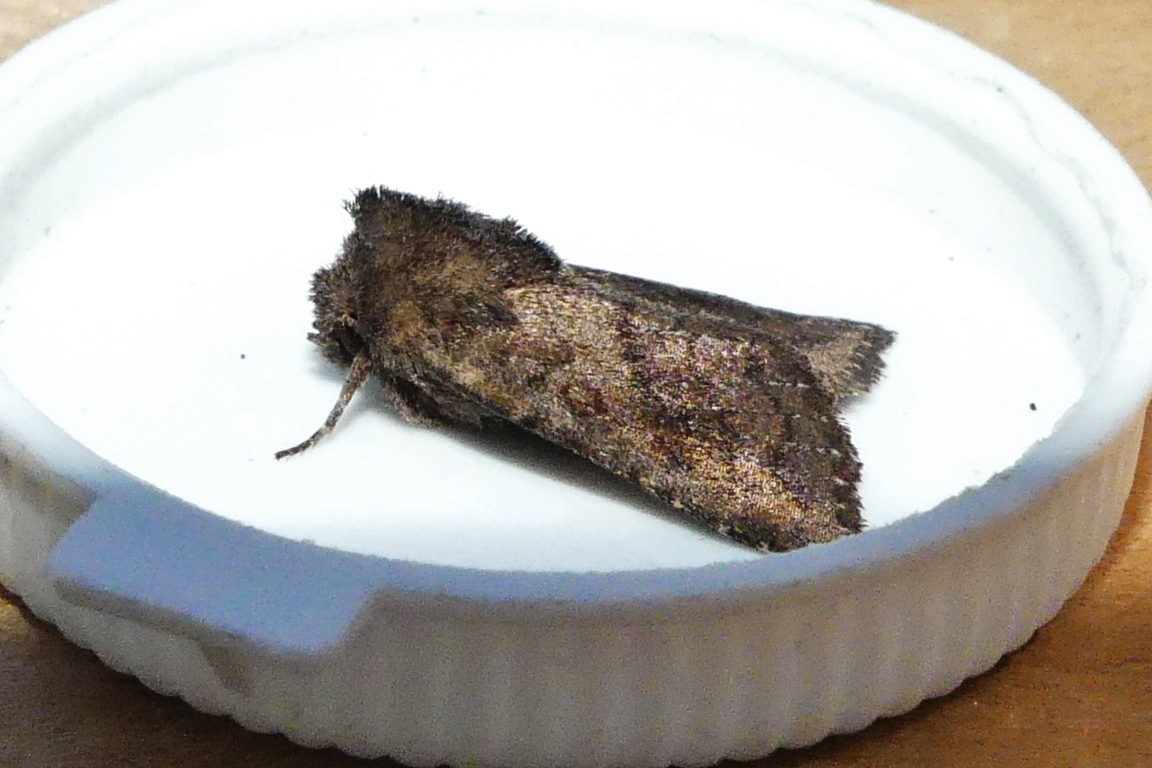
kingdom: Animalia
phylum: Arthropoda
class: Insecta
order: Lepidoptera
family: Noctuidae
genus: Tricholita
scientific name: Tricholita signata
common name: Signate quaker
